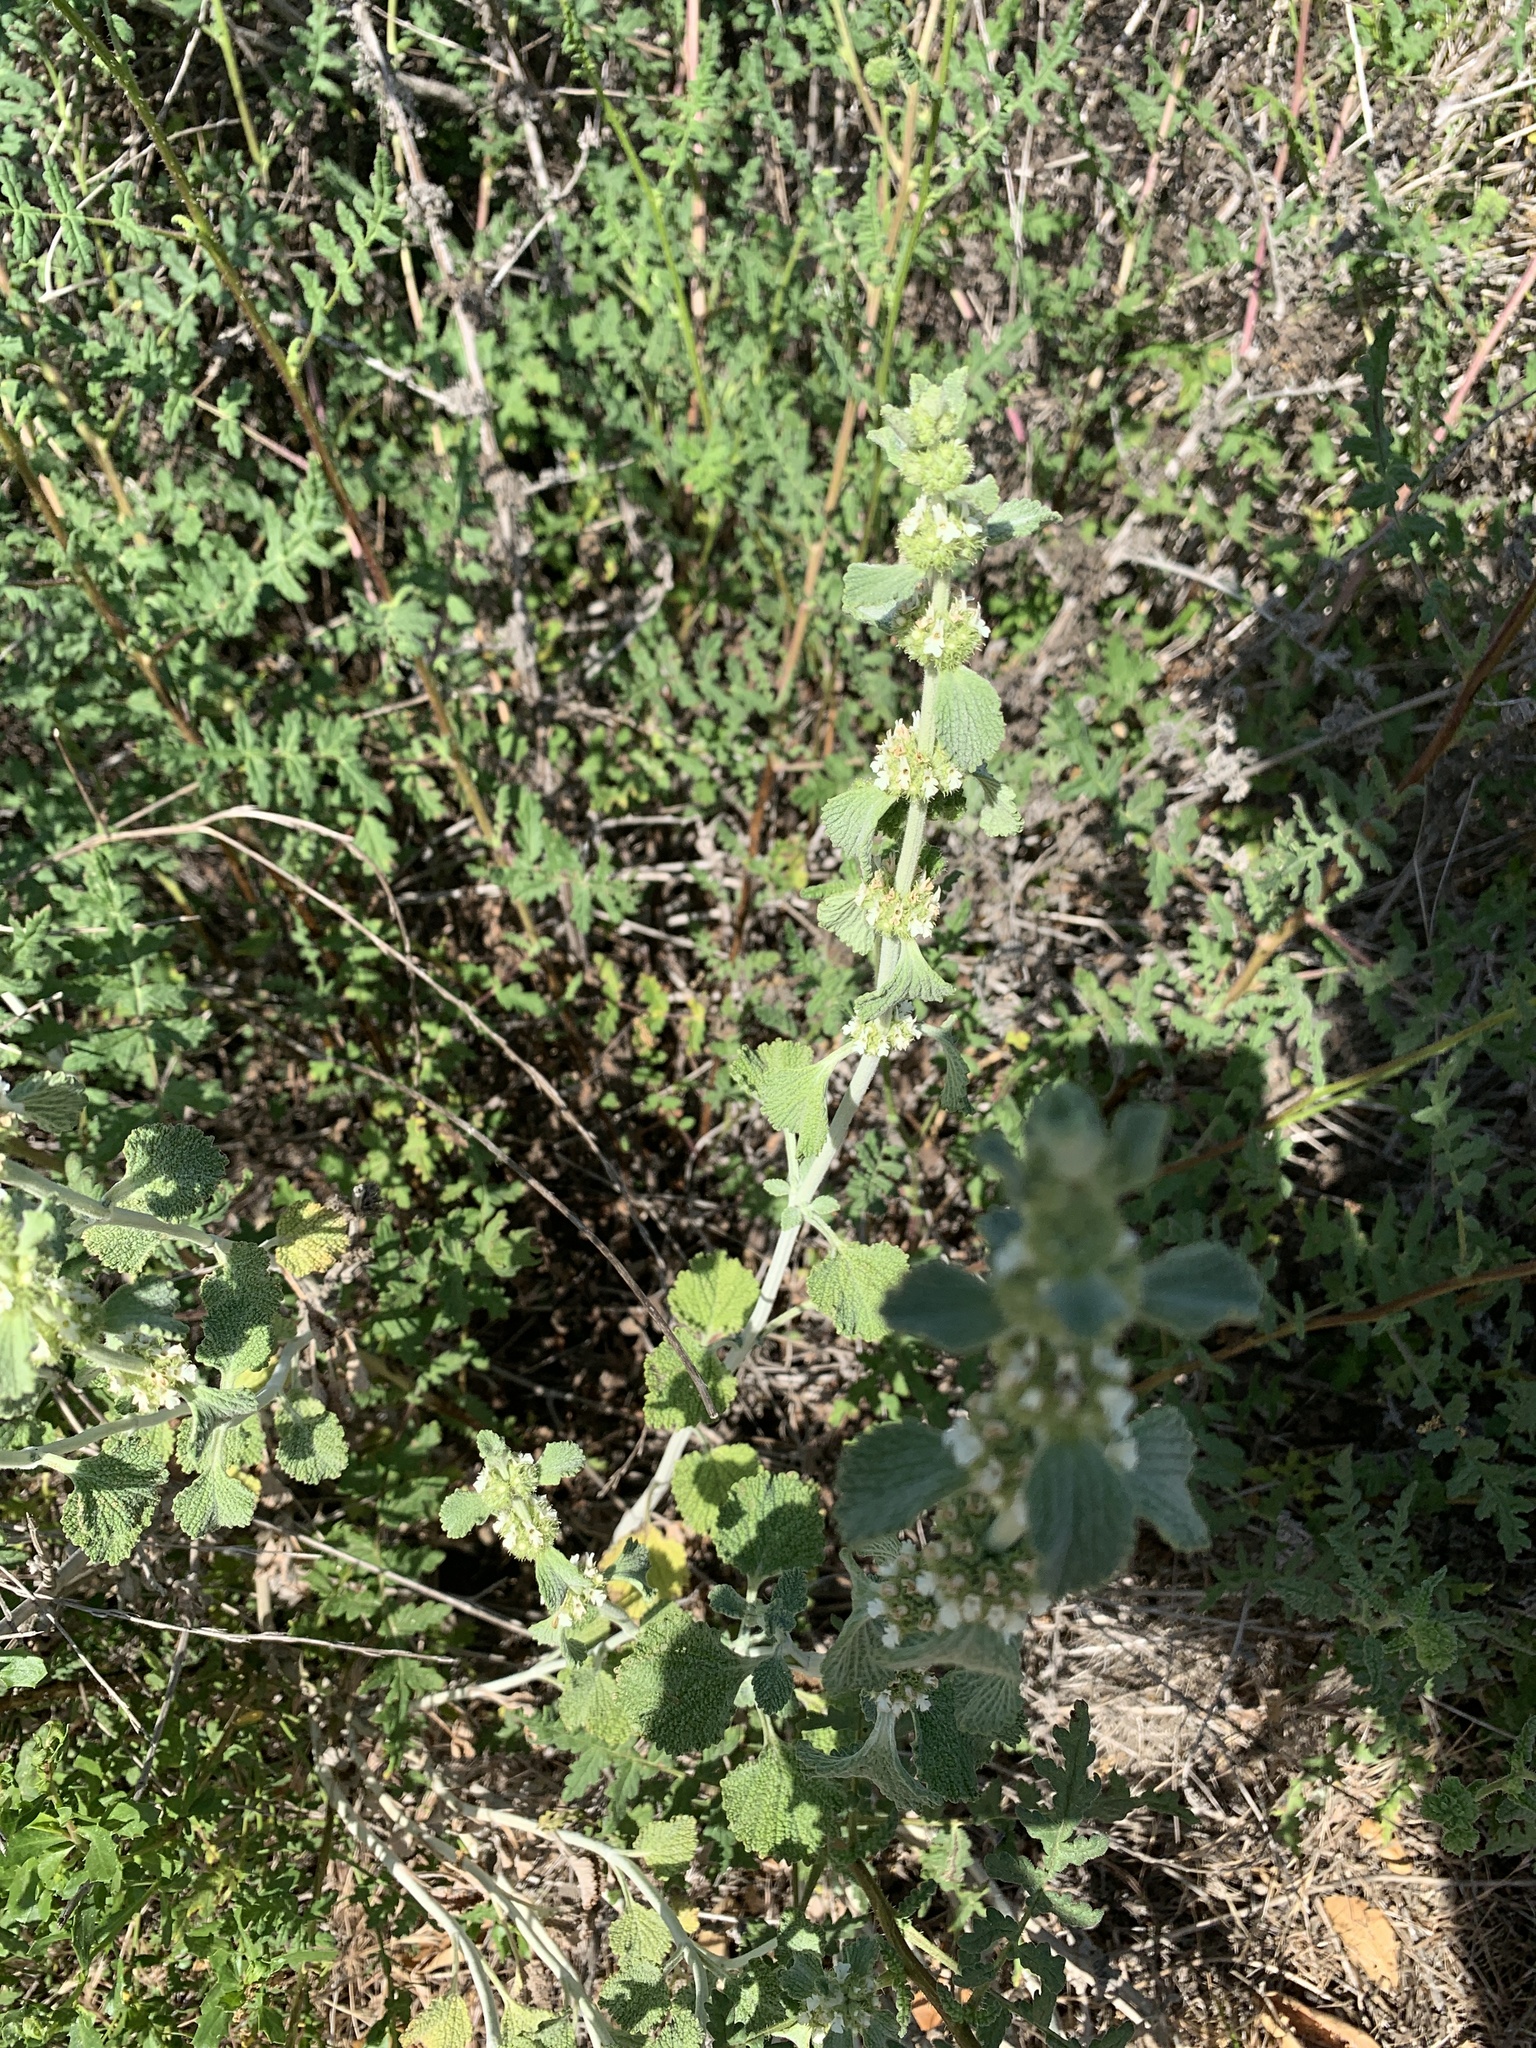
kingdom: Plantae
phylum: Tracheophyta
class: Magnoliopsida
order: Lamiales
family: Lamiaceae
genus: Marrubium
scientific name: Marrubium vulgare
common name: Horehound
